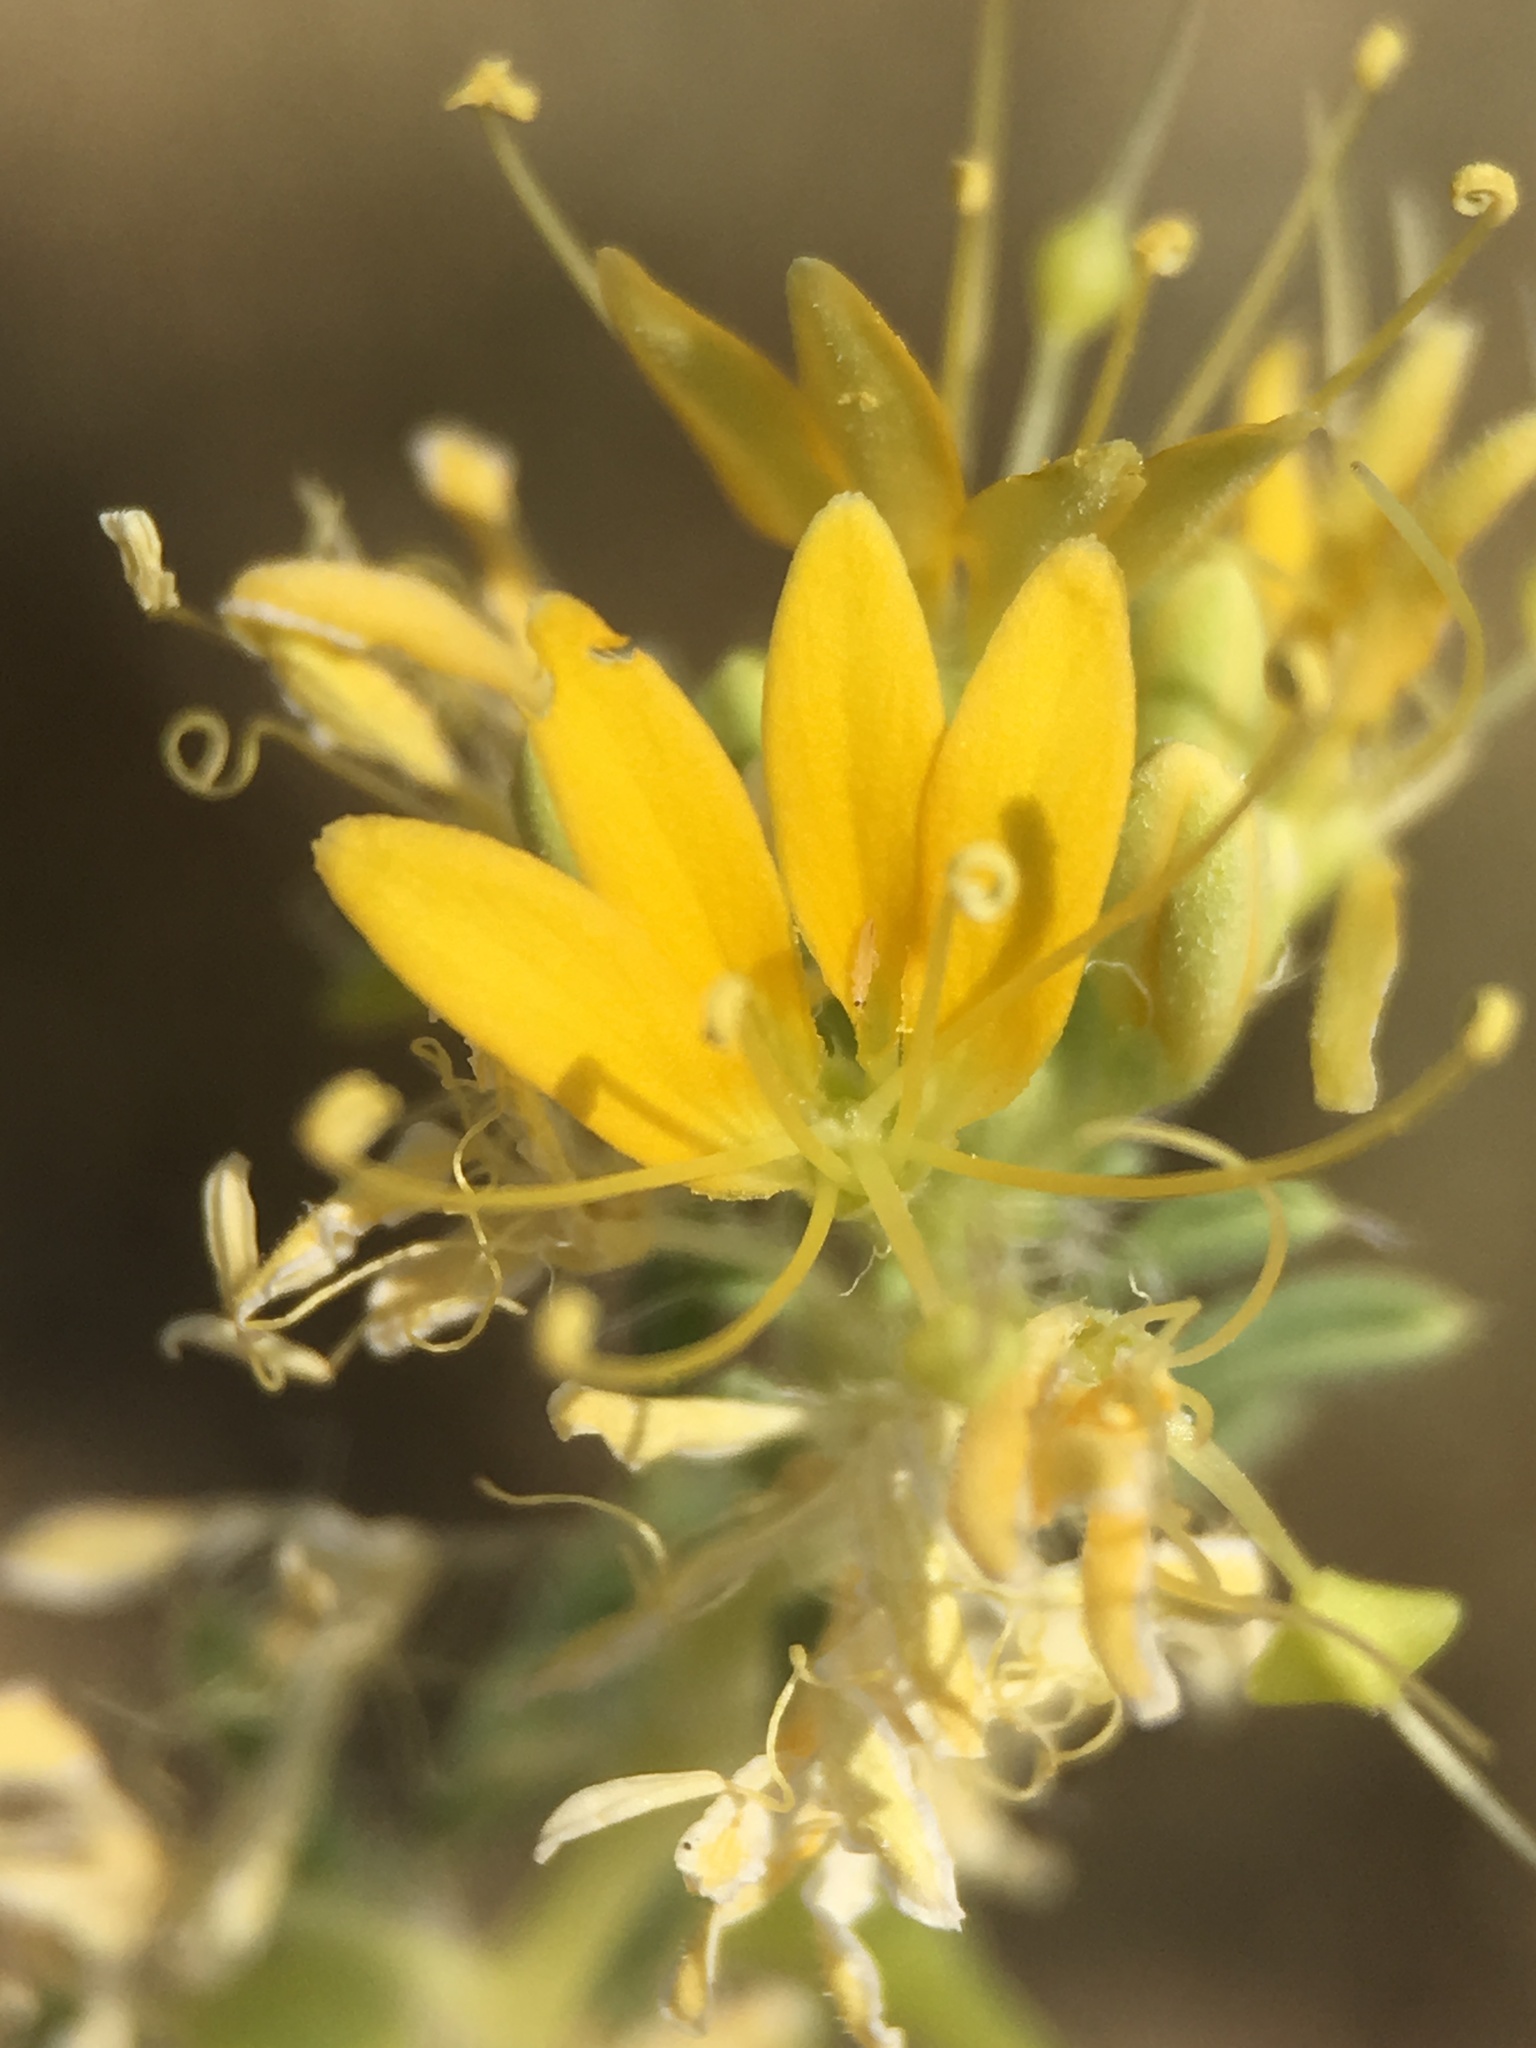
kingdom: Plantae
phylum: Tracheophyta
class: Magnoliopsida
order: Brassicales
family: Cleomaceae
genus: Cleomella
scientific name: Cleomella obtusifolia
